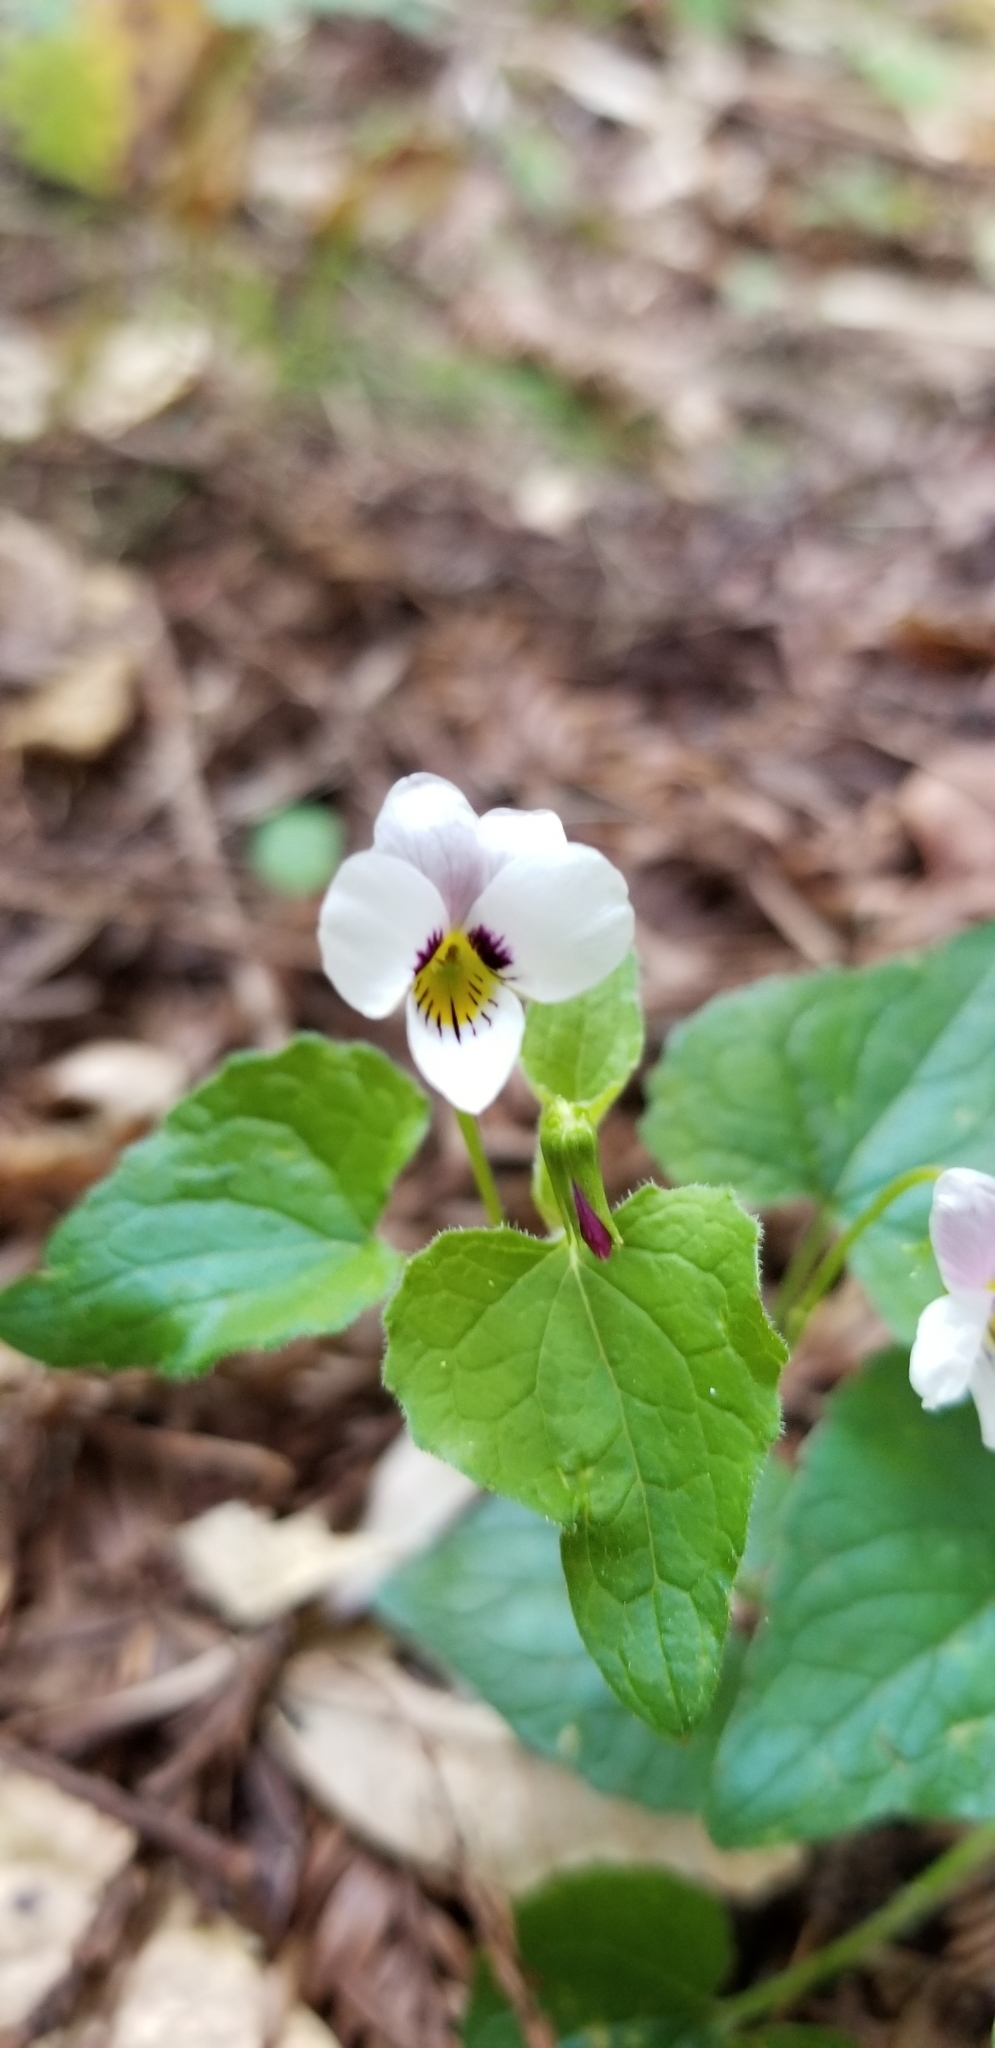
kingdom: Plantae
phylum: Tracheophyta
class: Magnoliopsida
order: Malpighiales
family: Violaceae
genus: Viola
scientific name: Viola ocellata
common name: Western heart's ease
